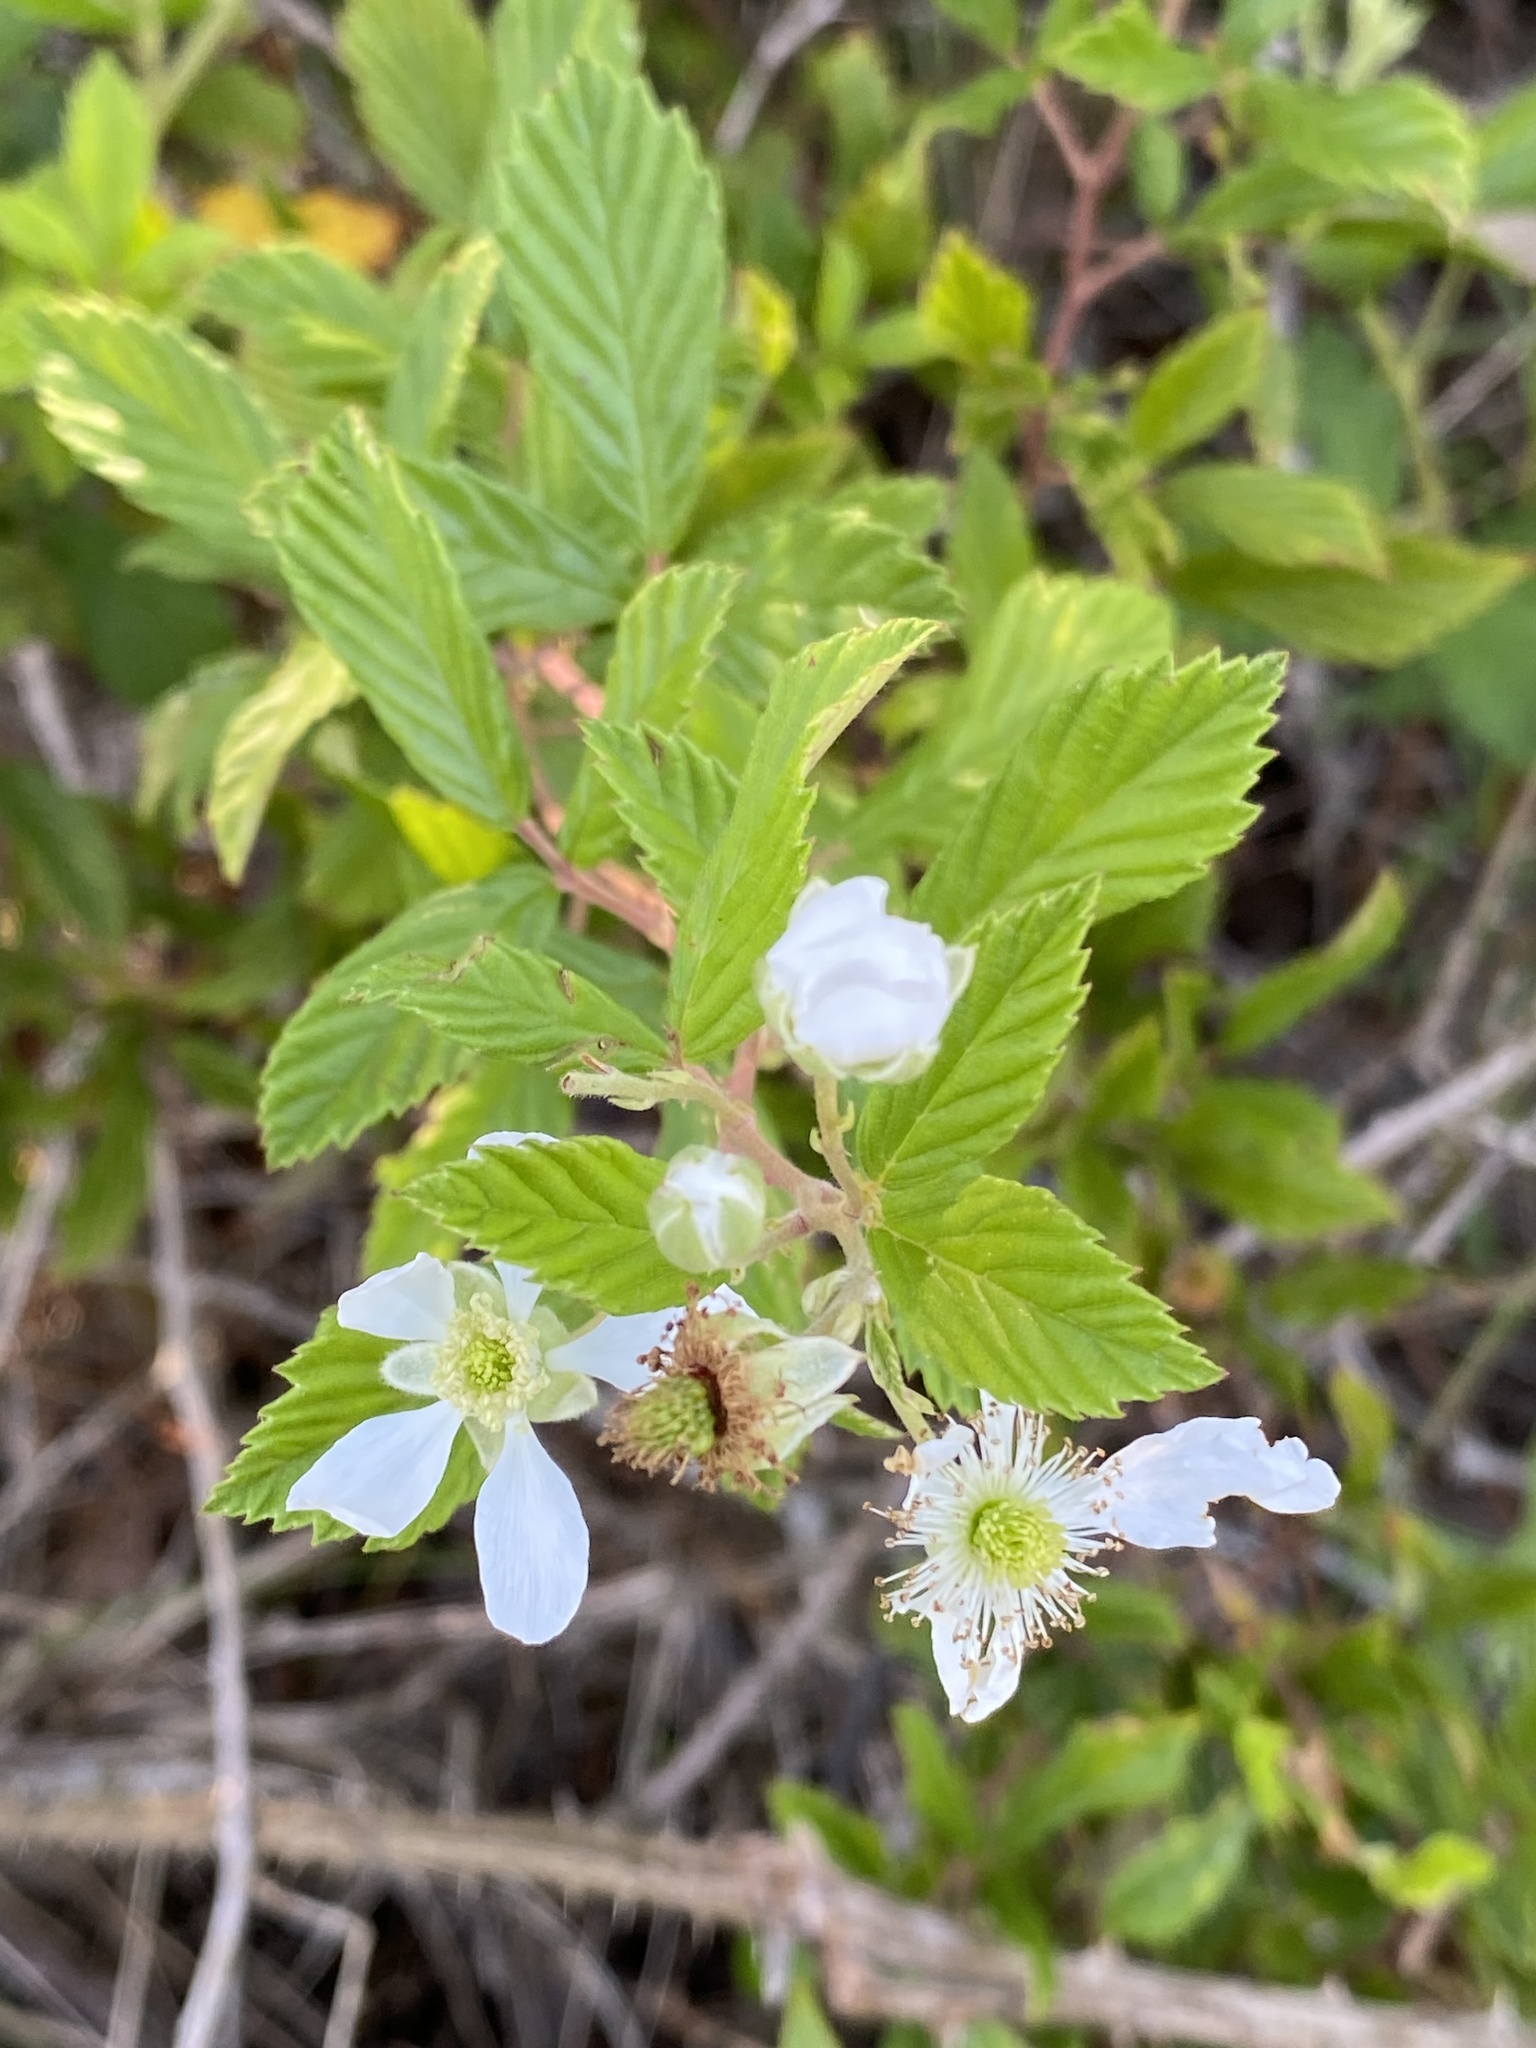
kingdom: Plantae
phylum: Tracheophyta
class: Magnoliopsida
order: Rosales
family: Rosaceae
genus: Rubus
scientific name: Rubus cuneifolius
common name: American bramble
